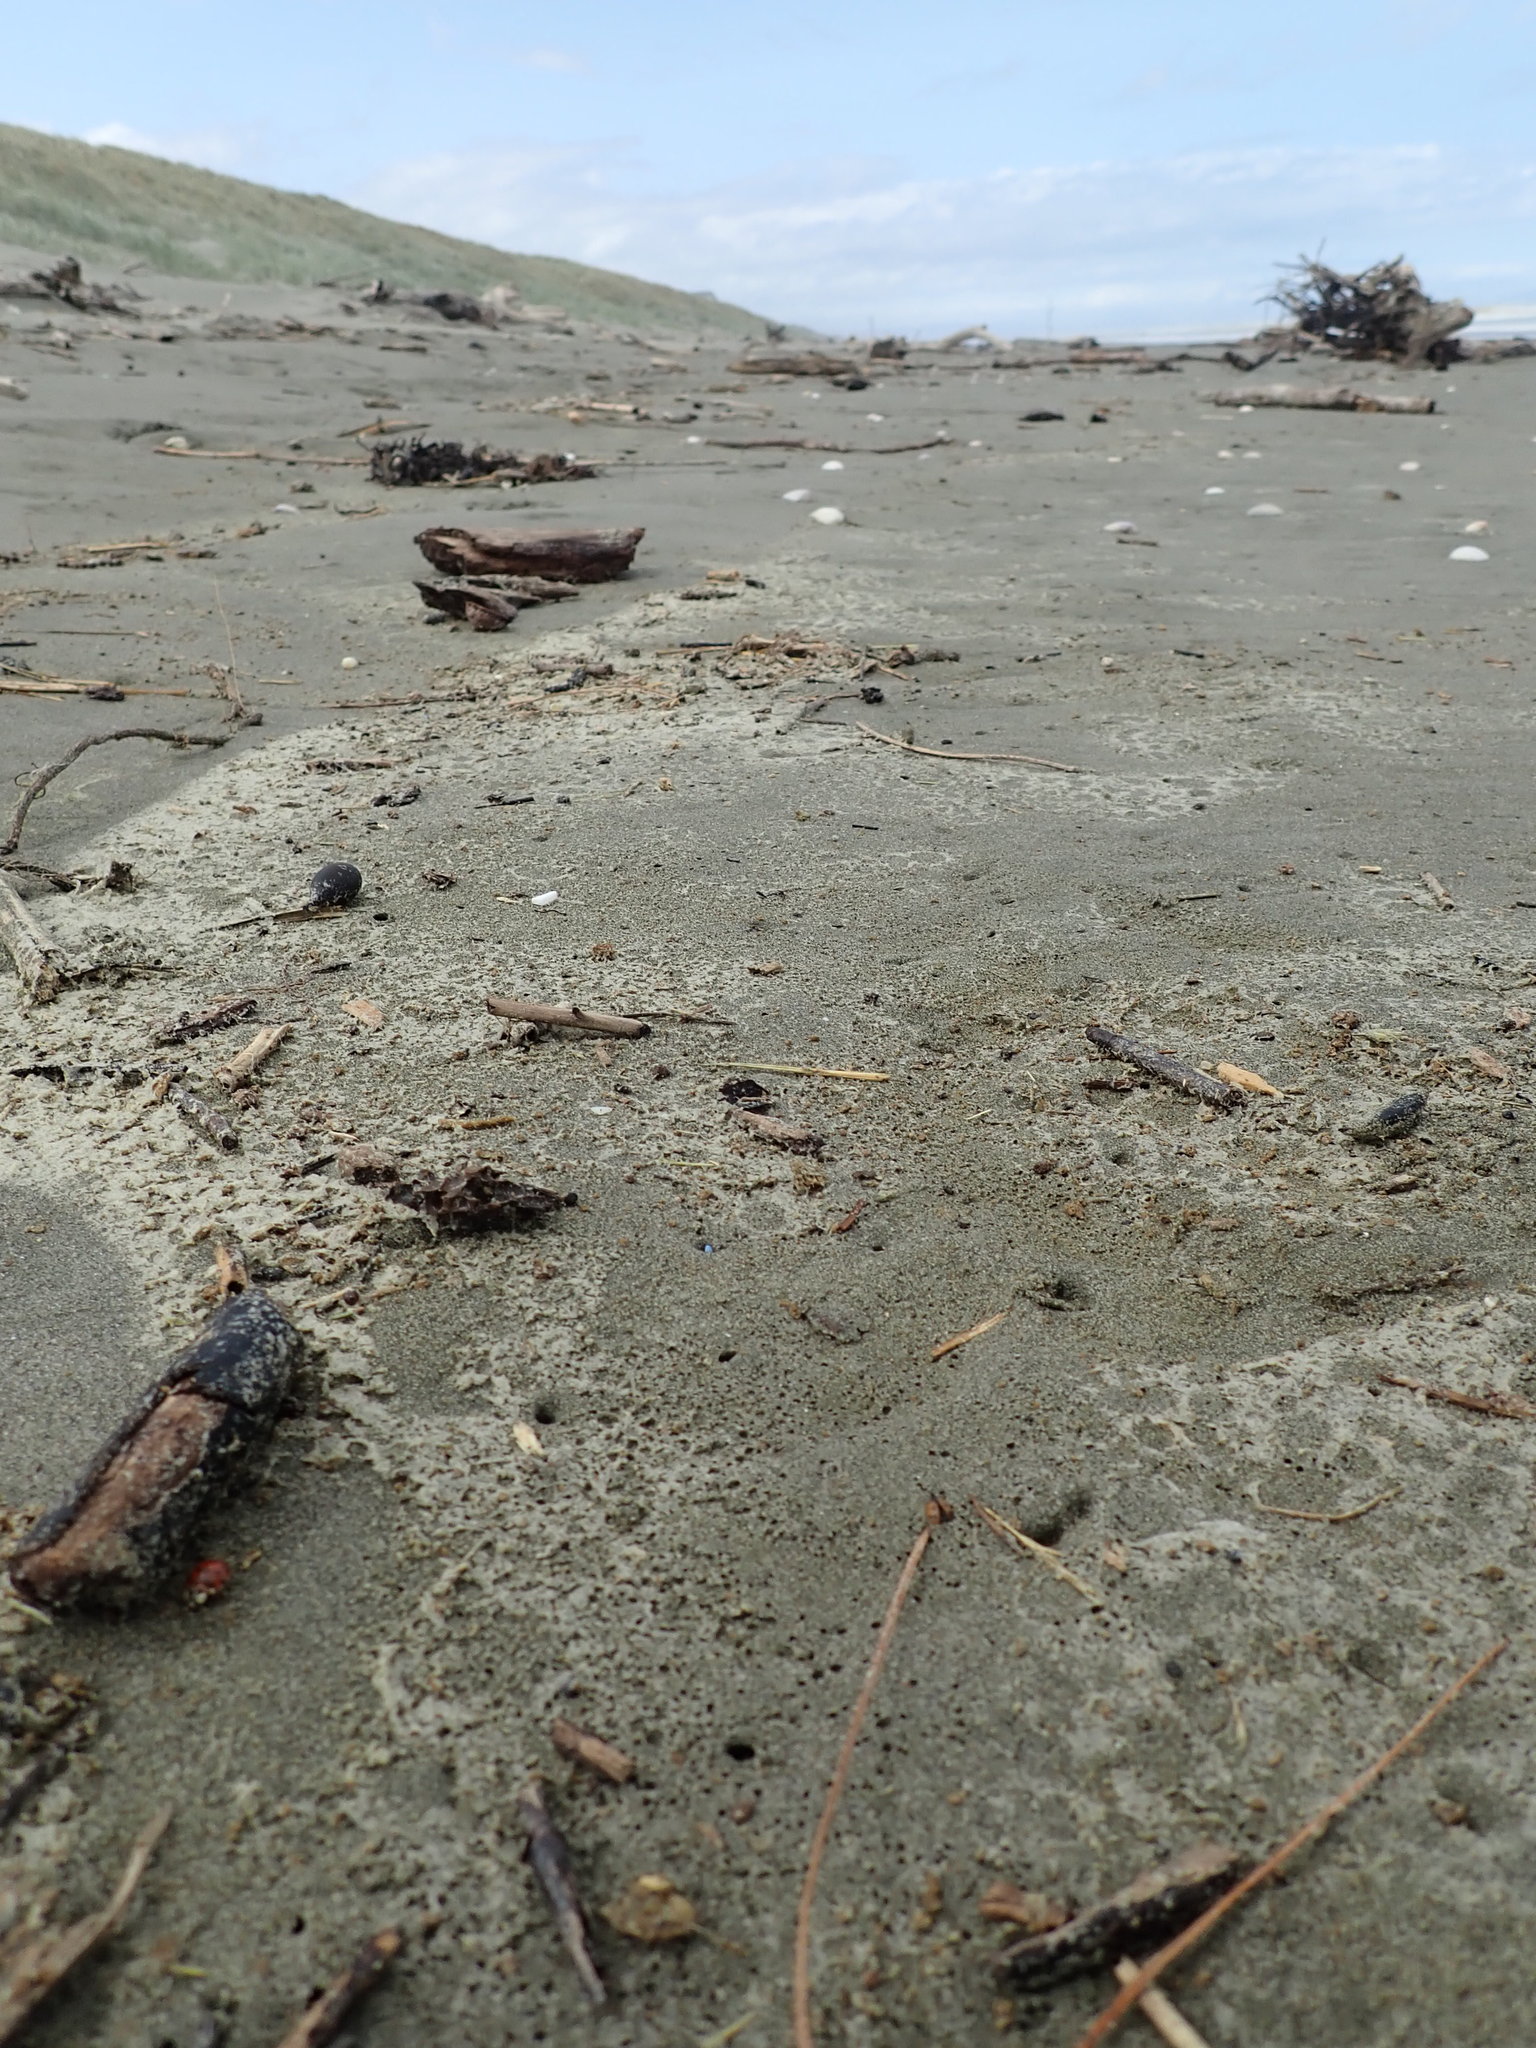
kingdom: Animalia
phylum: Arthropoda
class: Insecta
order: Coleoptera
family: Coccinellidae
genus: Harmonia
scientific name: Harmonia axyridis
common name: Harlequin ladybird
